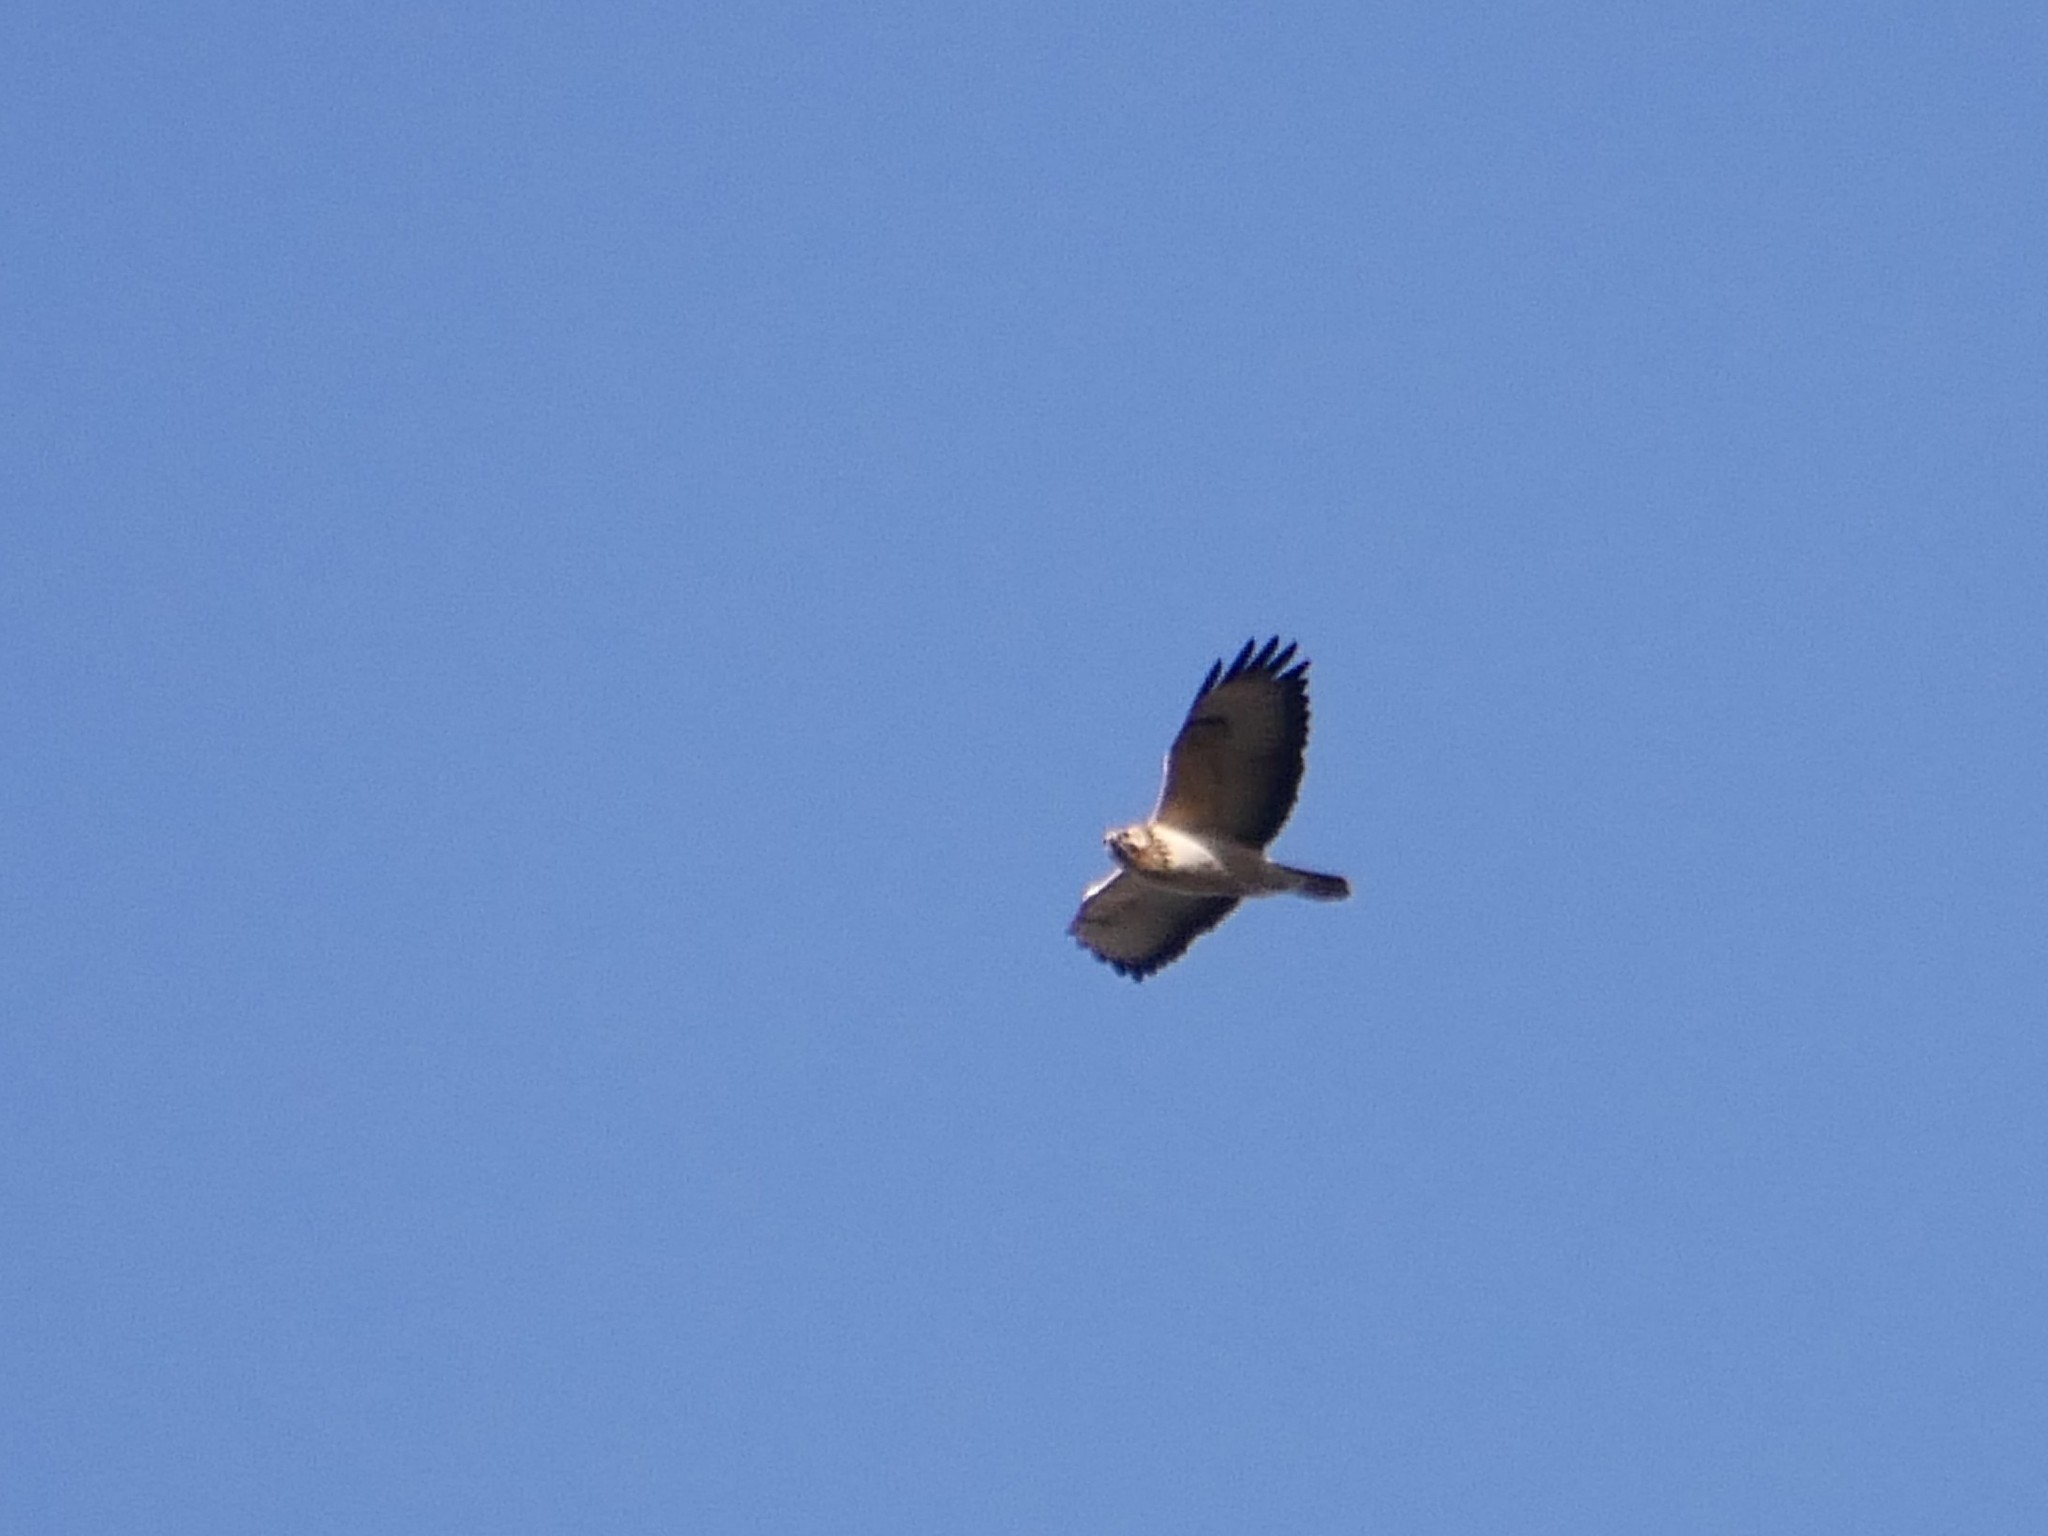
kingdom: Animalia
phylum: Chordata
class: Aves
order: Accipitriformes
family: Accipitridae
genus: Buteo
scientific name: Buteo buteo
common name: Common buzzard
